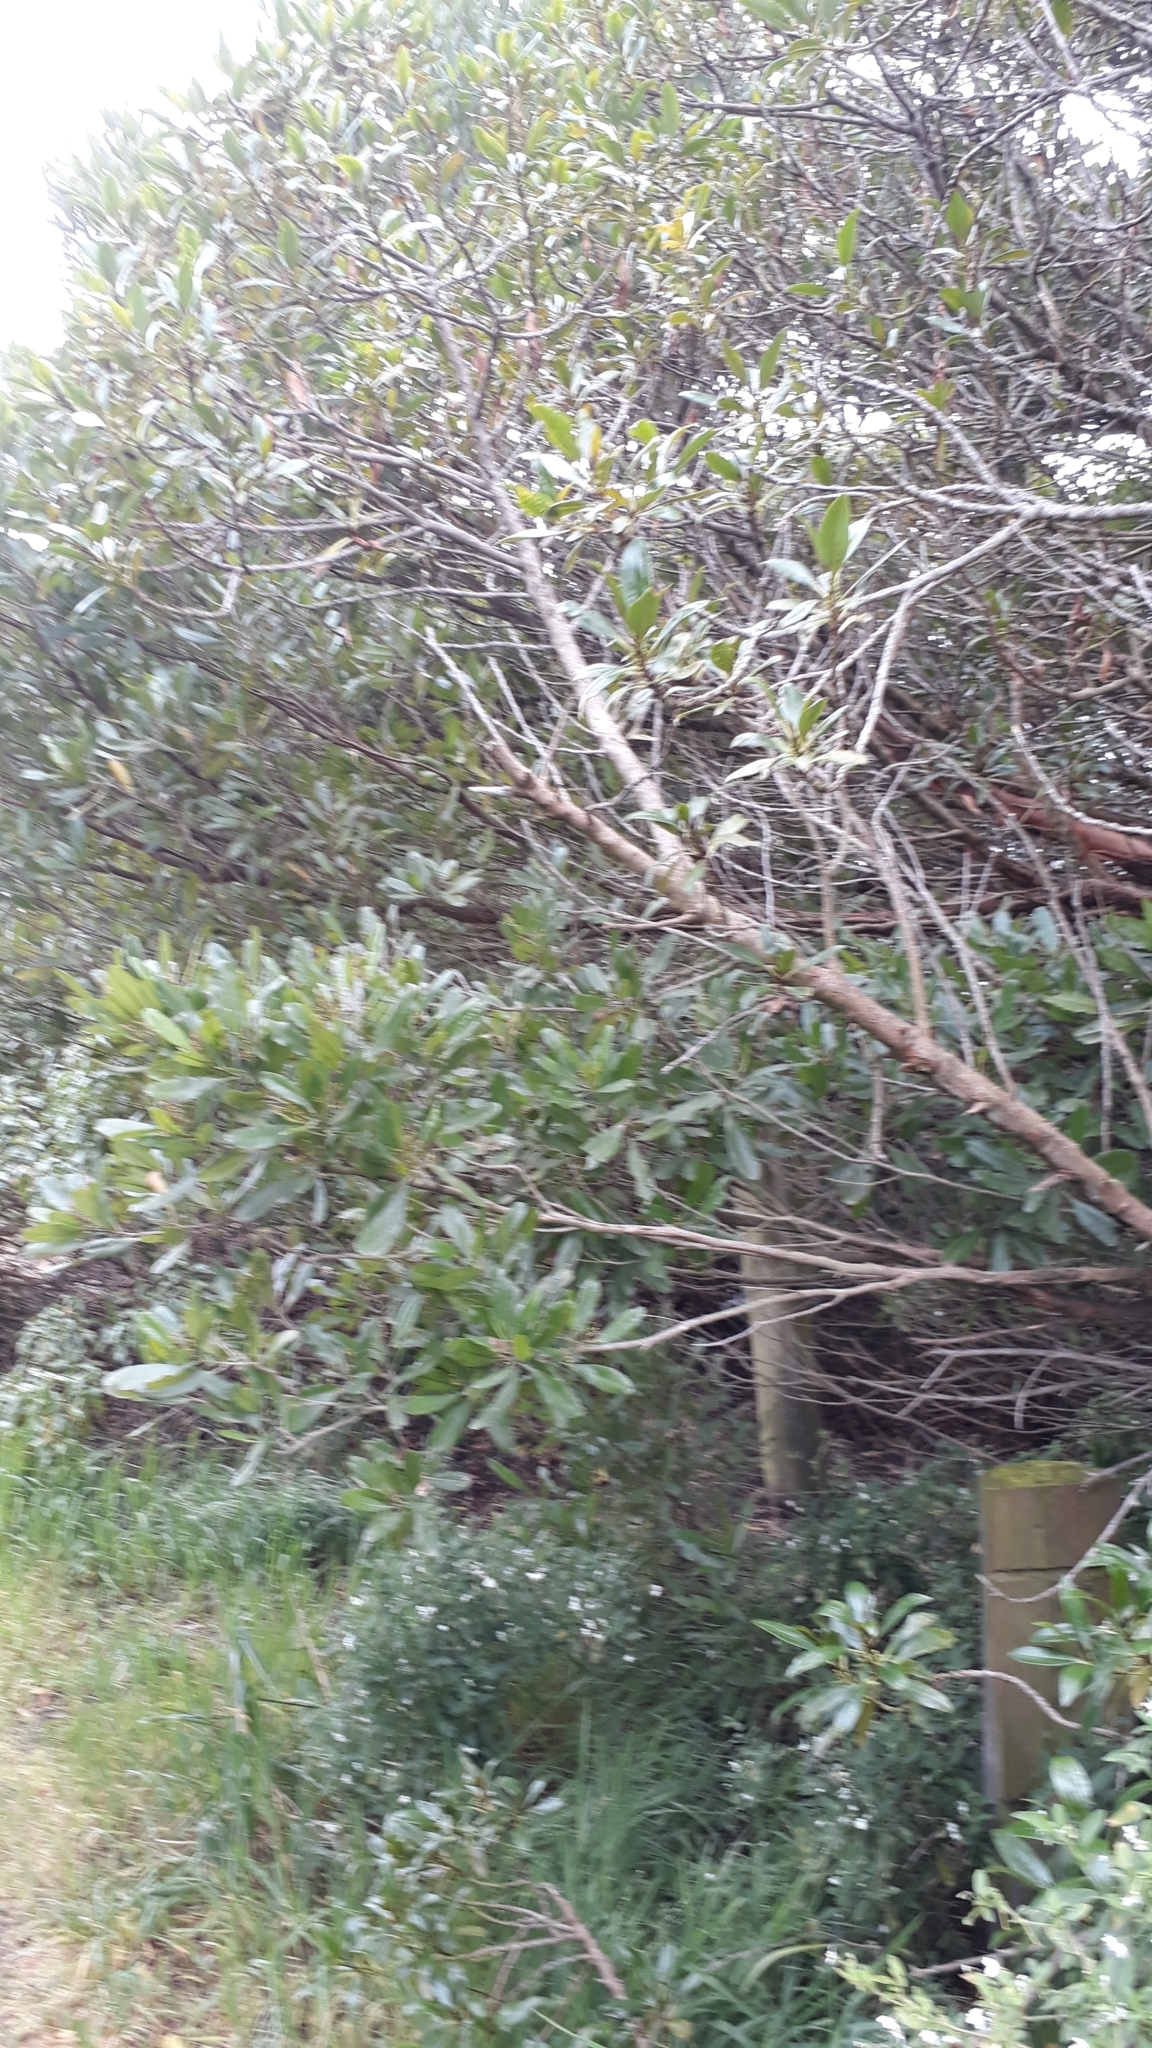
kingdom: Plantae
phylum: Tracheophyta
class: Magnoliopsida
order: Sapindales
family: Sapindaceae
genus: Dodonaea
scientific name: Dodonaea viscosa
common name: Hopbush
